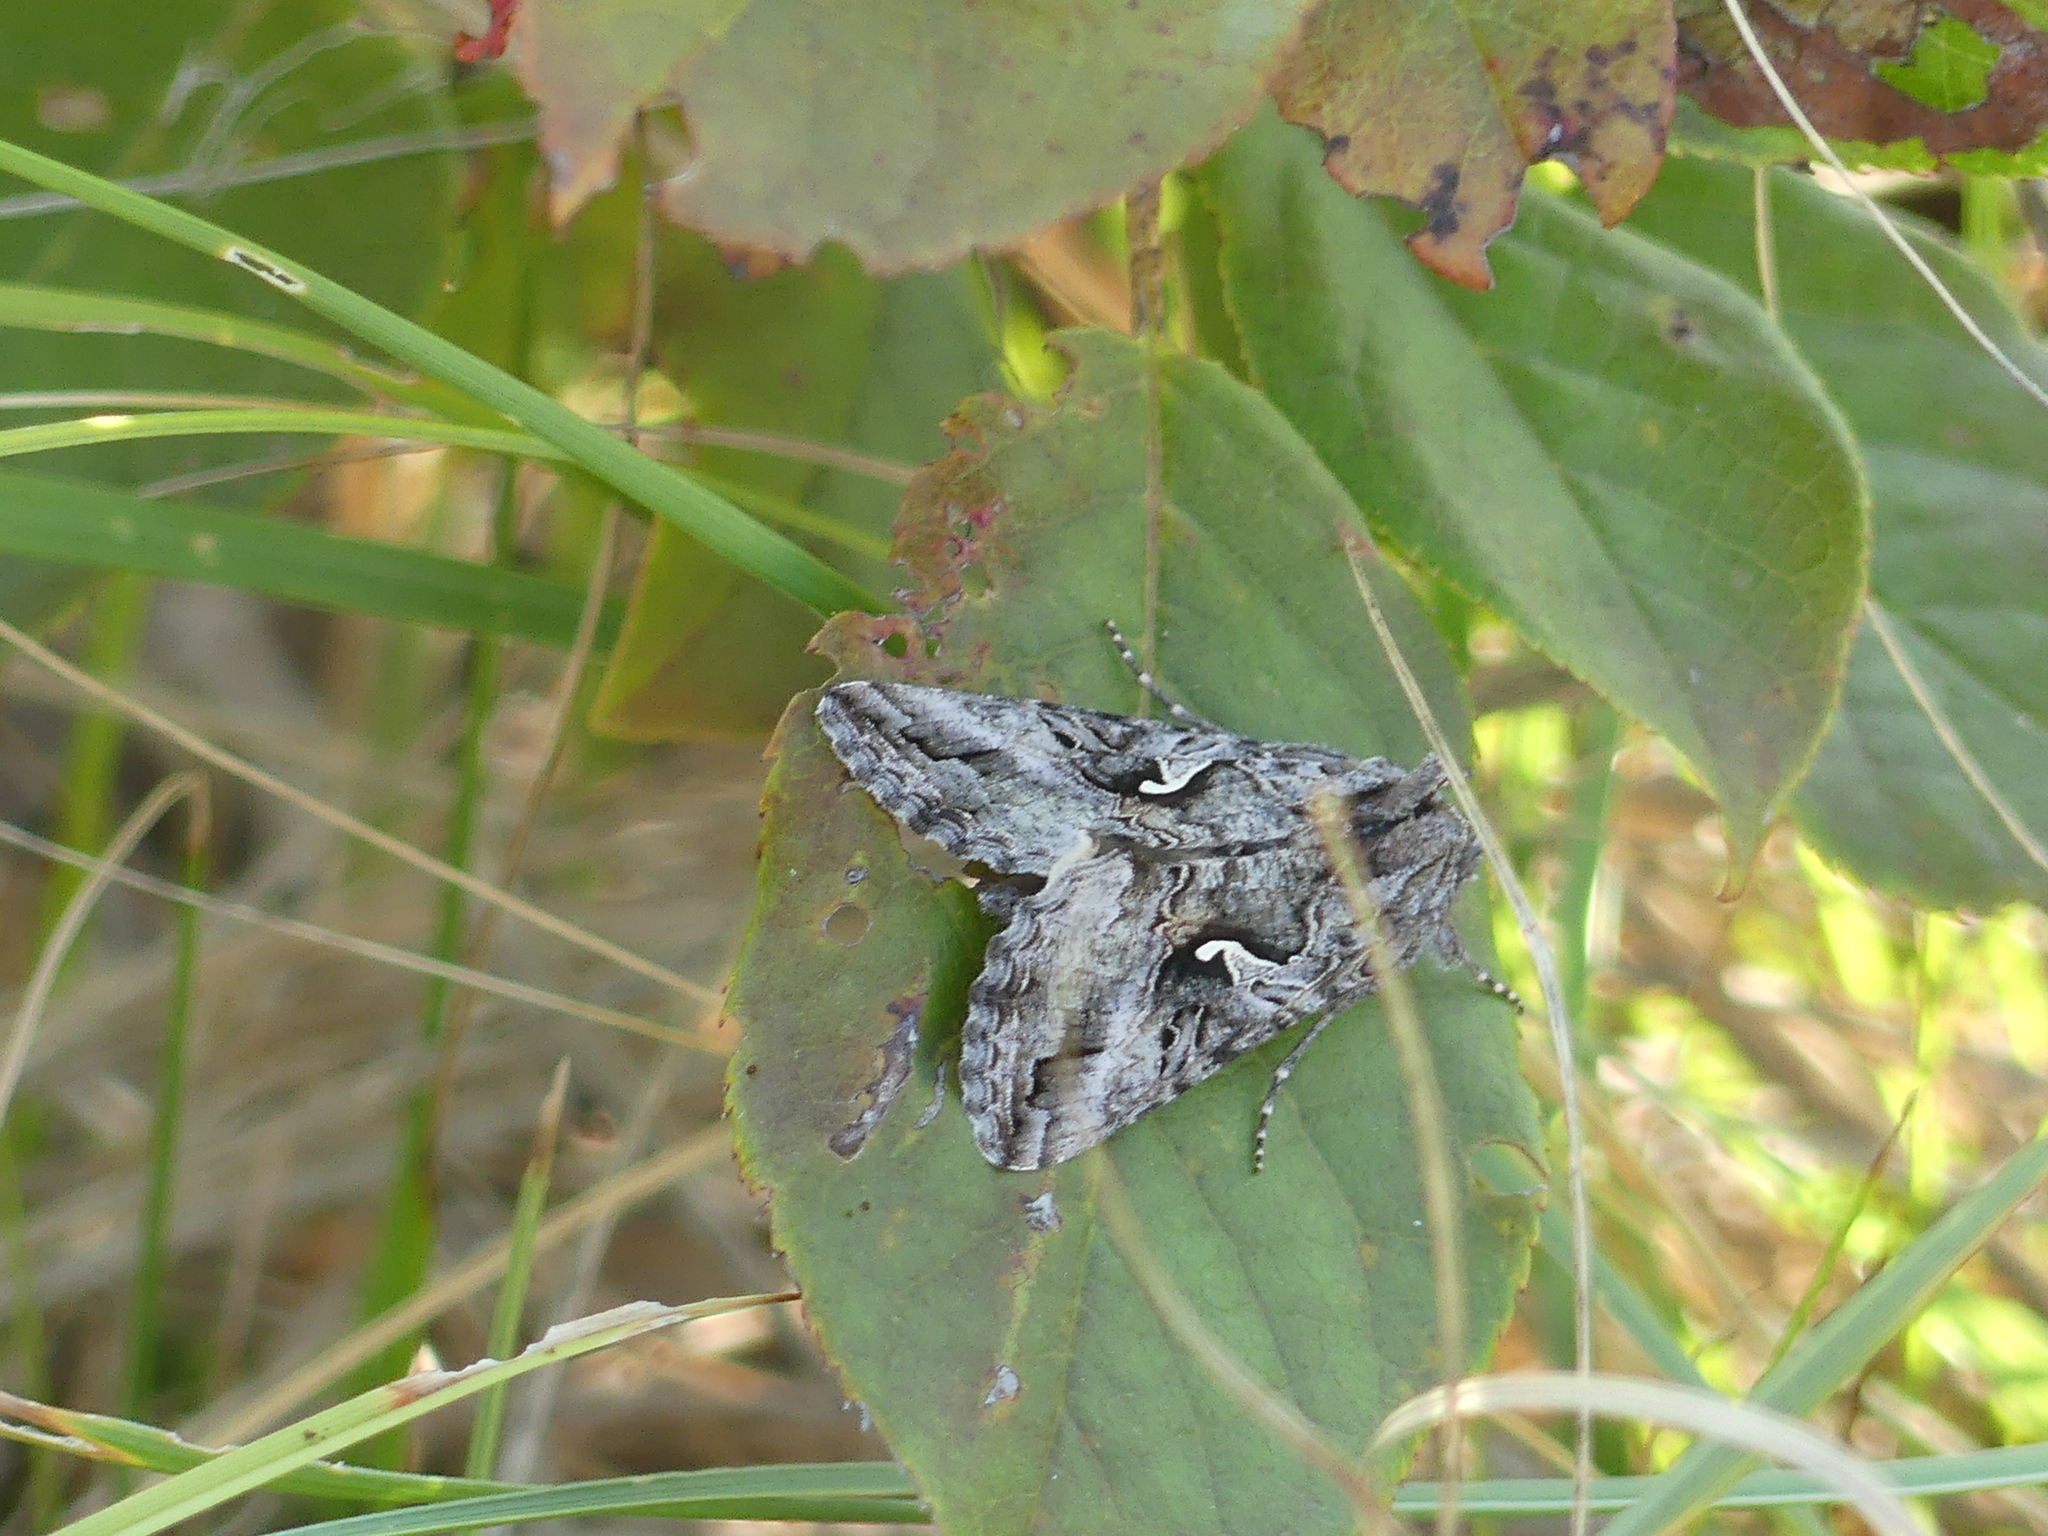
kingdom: Animalia
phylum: Arthropoda
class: Insecta
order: Lepidoptera
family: Noctuidae
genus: Autographa
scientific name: Autographa californica
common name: Alfalfa looper
